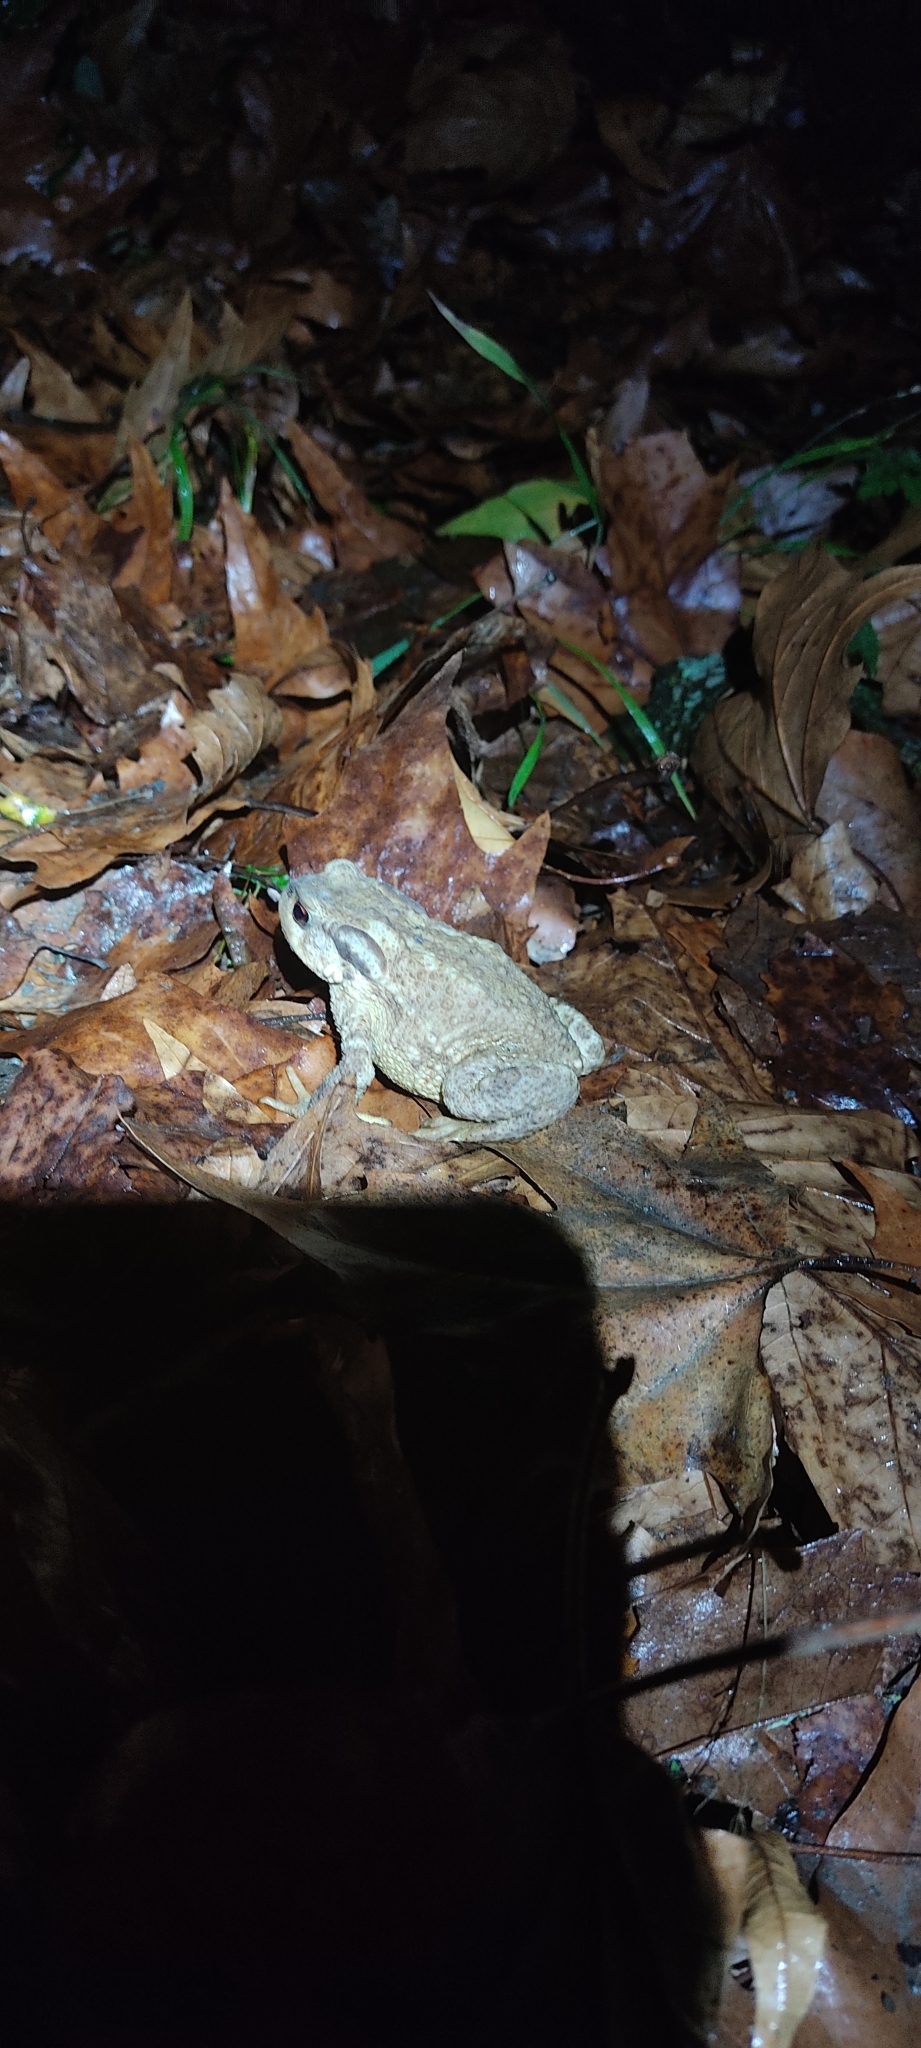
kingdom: Animalia
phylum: Chordata
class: Amphibia
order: Anura
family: Bufonidae
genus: Bufo
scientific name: Bufo spinosus
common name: Western common toad
